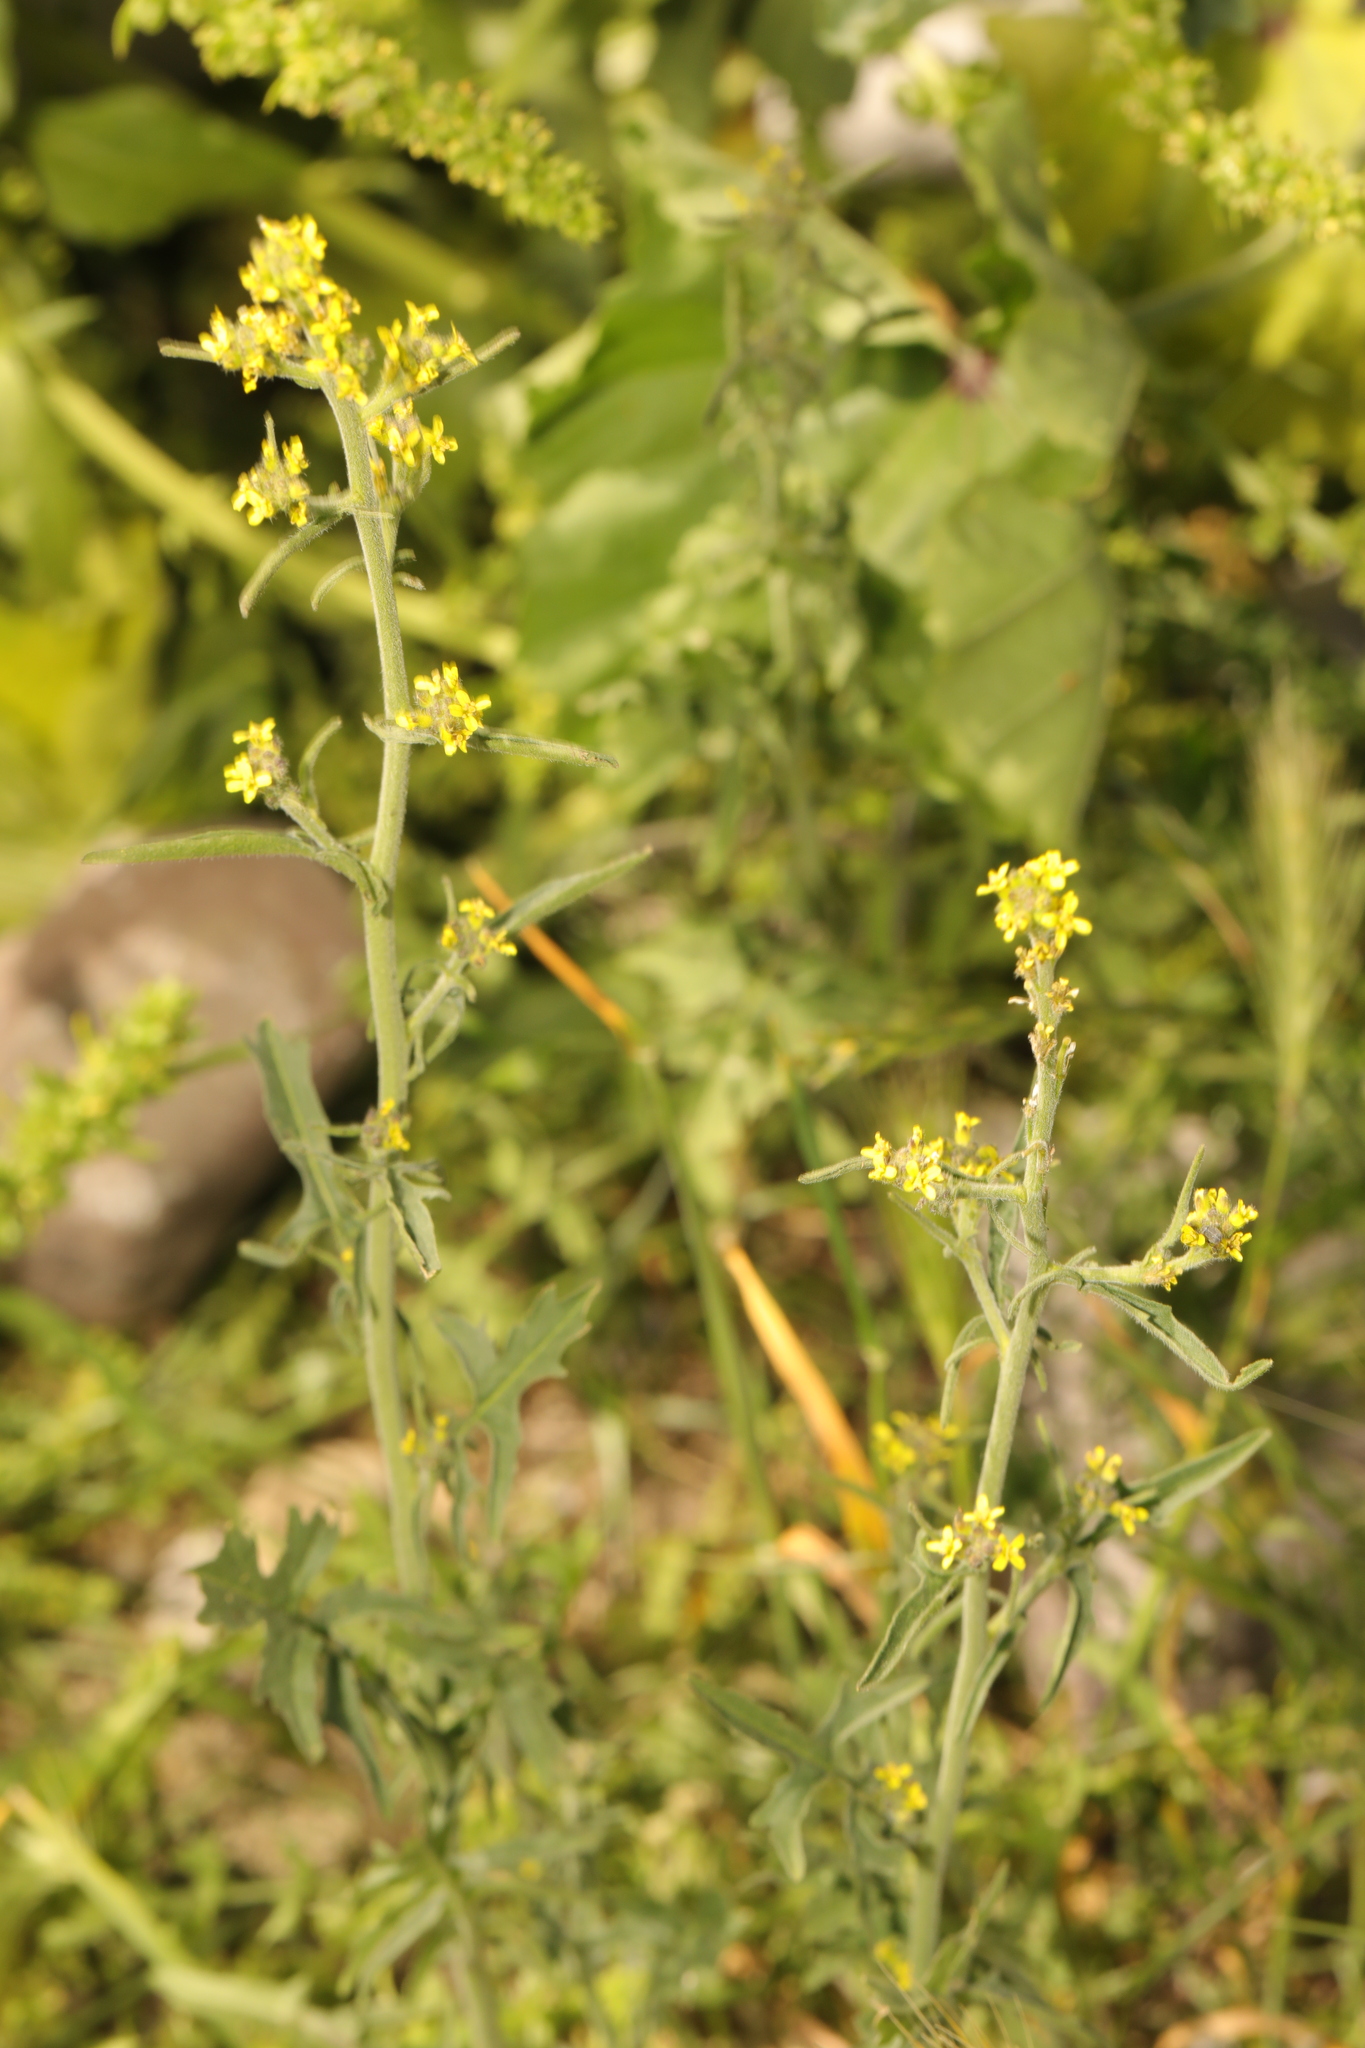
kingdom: Plantae
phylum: Tracheophyta
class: Magnoliopsida
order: Brassicales
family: Brassicaceae
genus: Sisymbrium
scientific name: Sisymbrium officinale
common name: Hedge mustard
